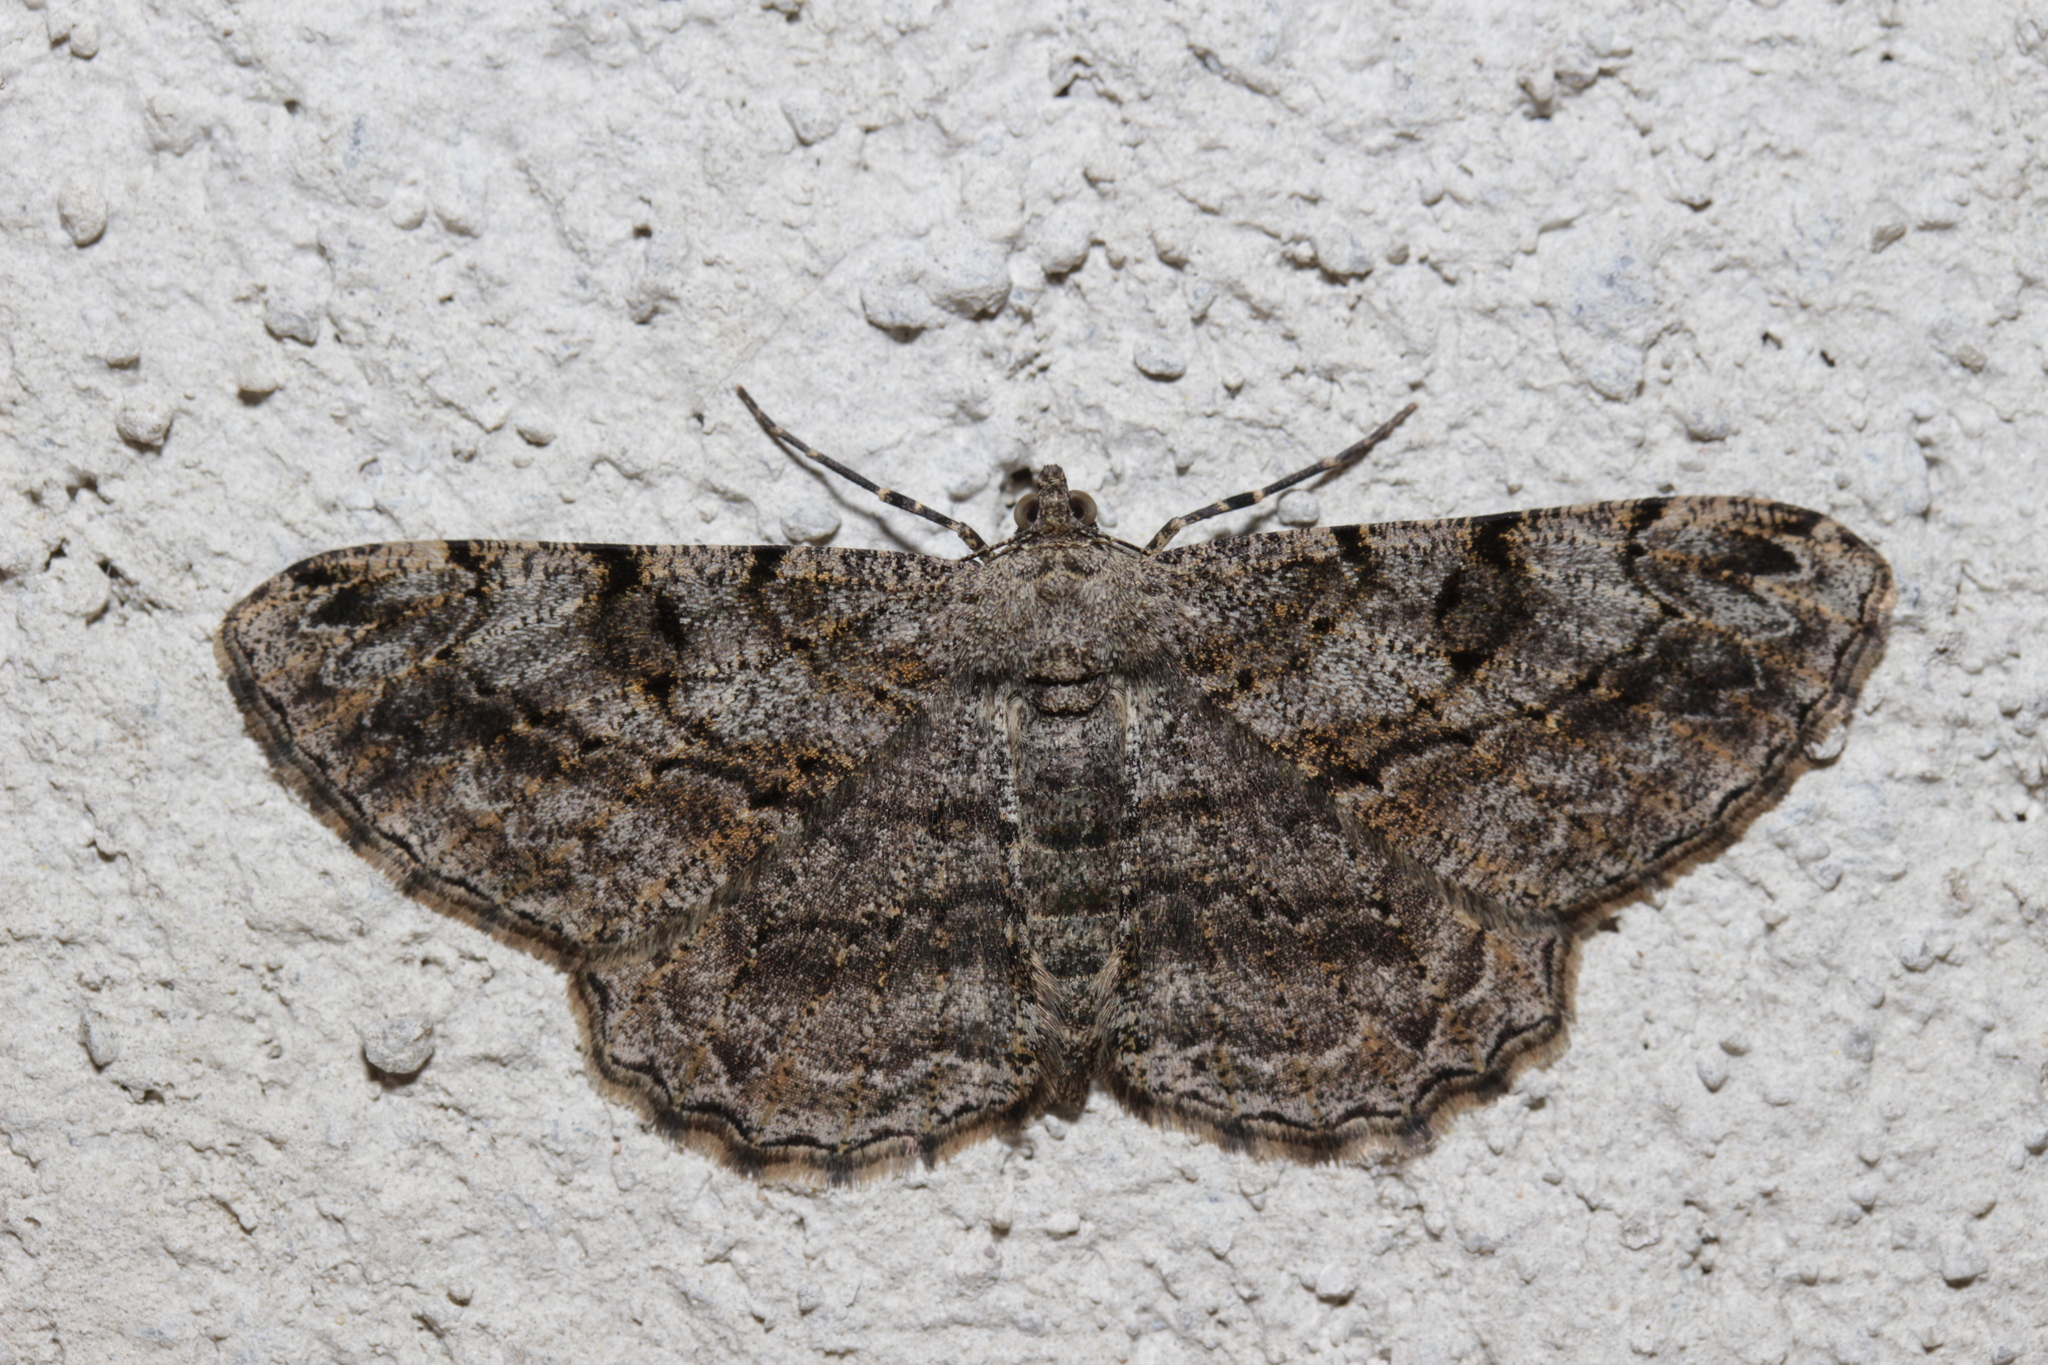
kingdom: Animalia
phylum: Arthropoda
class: Insecta
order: Lepidoptera
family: Geometridae
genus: Peribatodes
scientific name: Peribatodes rhomboidaria
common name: Willow beauty
